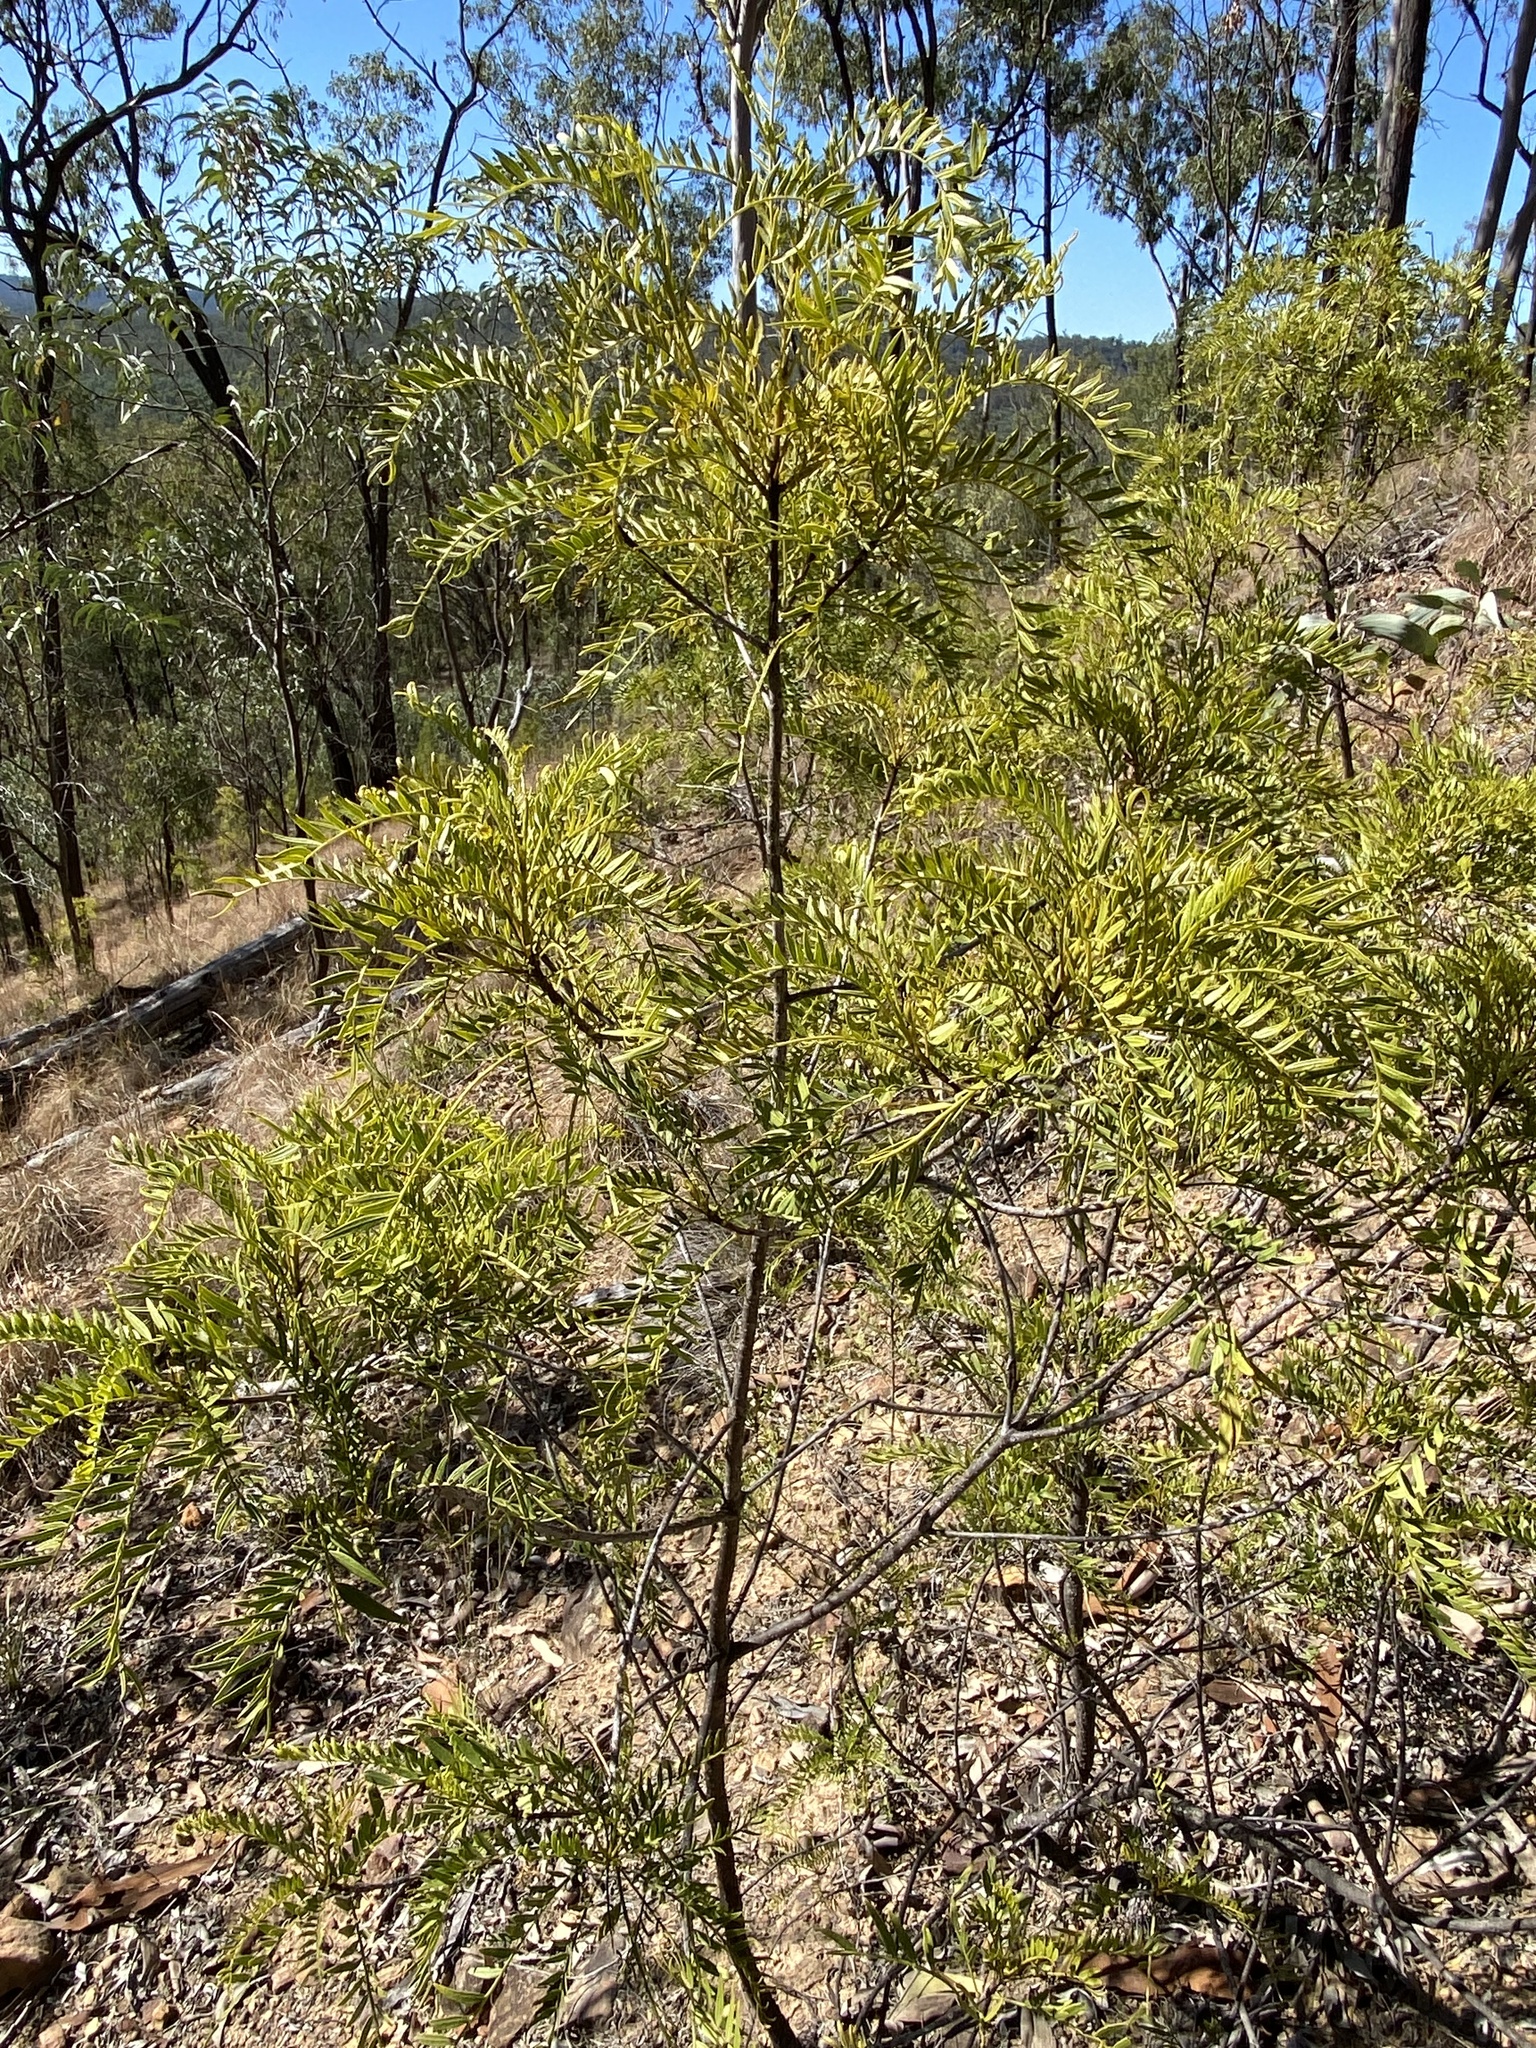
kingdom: Plantae
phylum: Tracheophyta
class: Magnoliopsida
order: Sapindales
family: Meliaceae
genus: Owenia
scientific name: Owenia acidula
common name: Tulipwood
